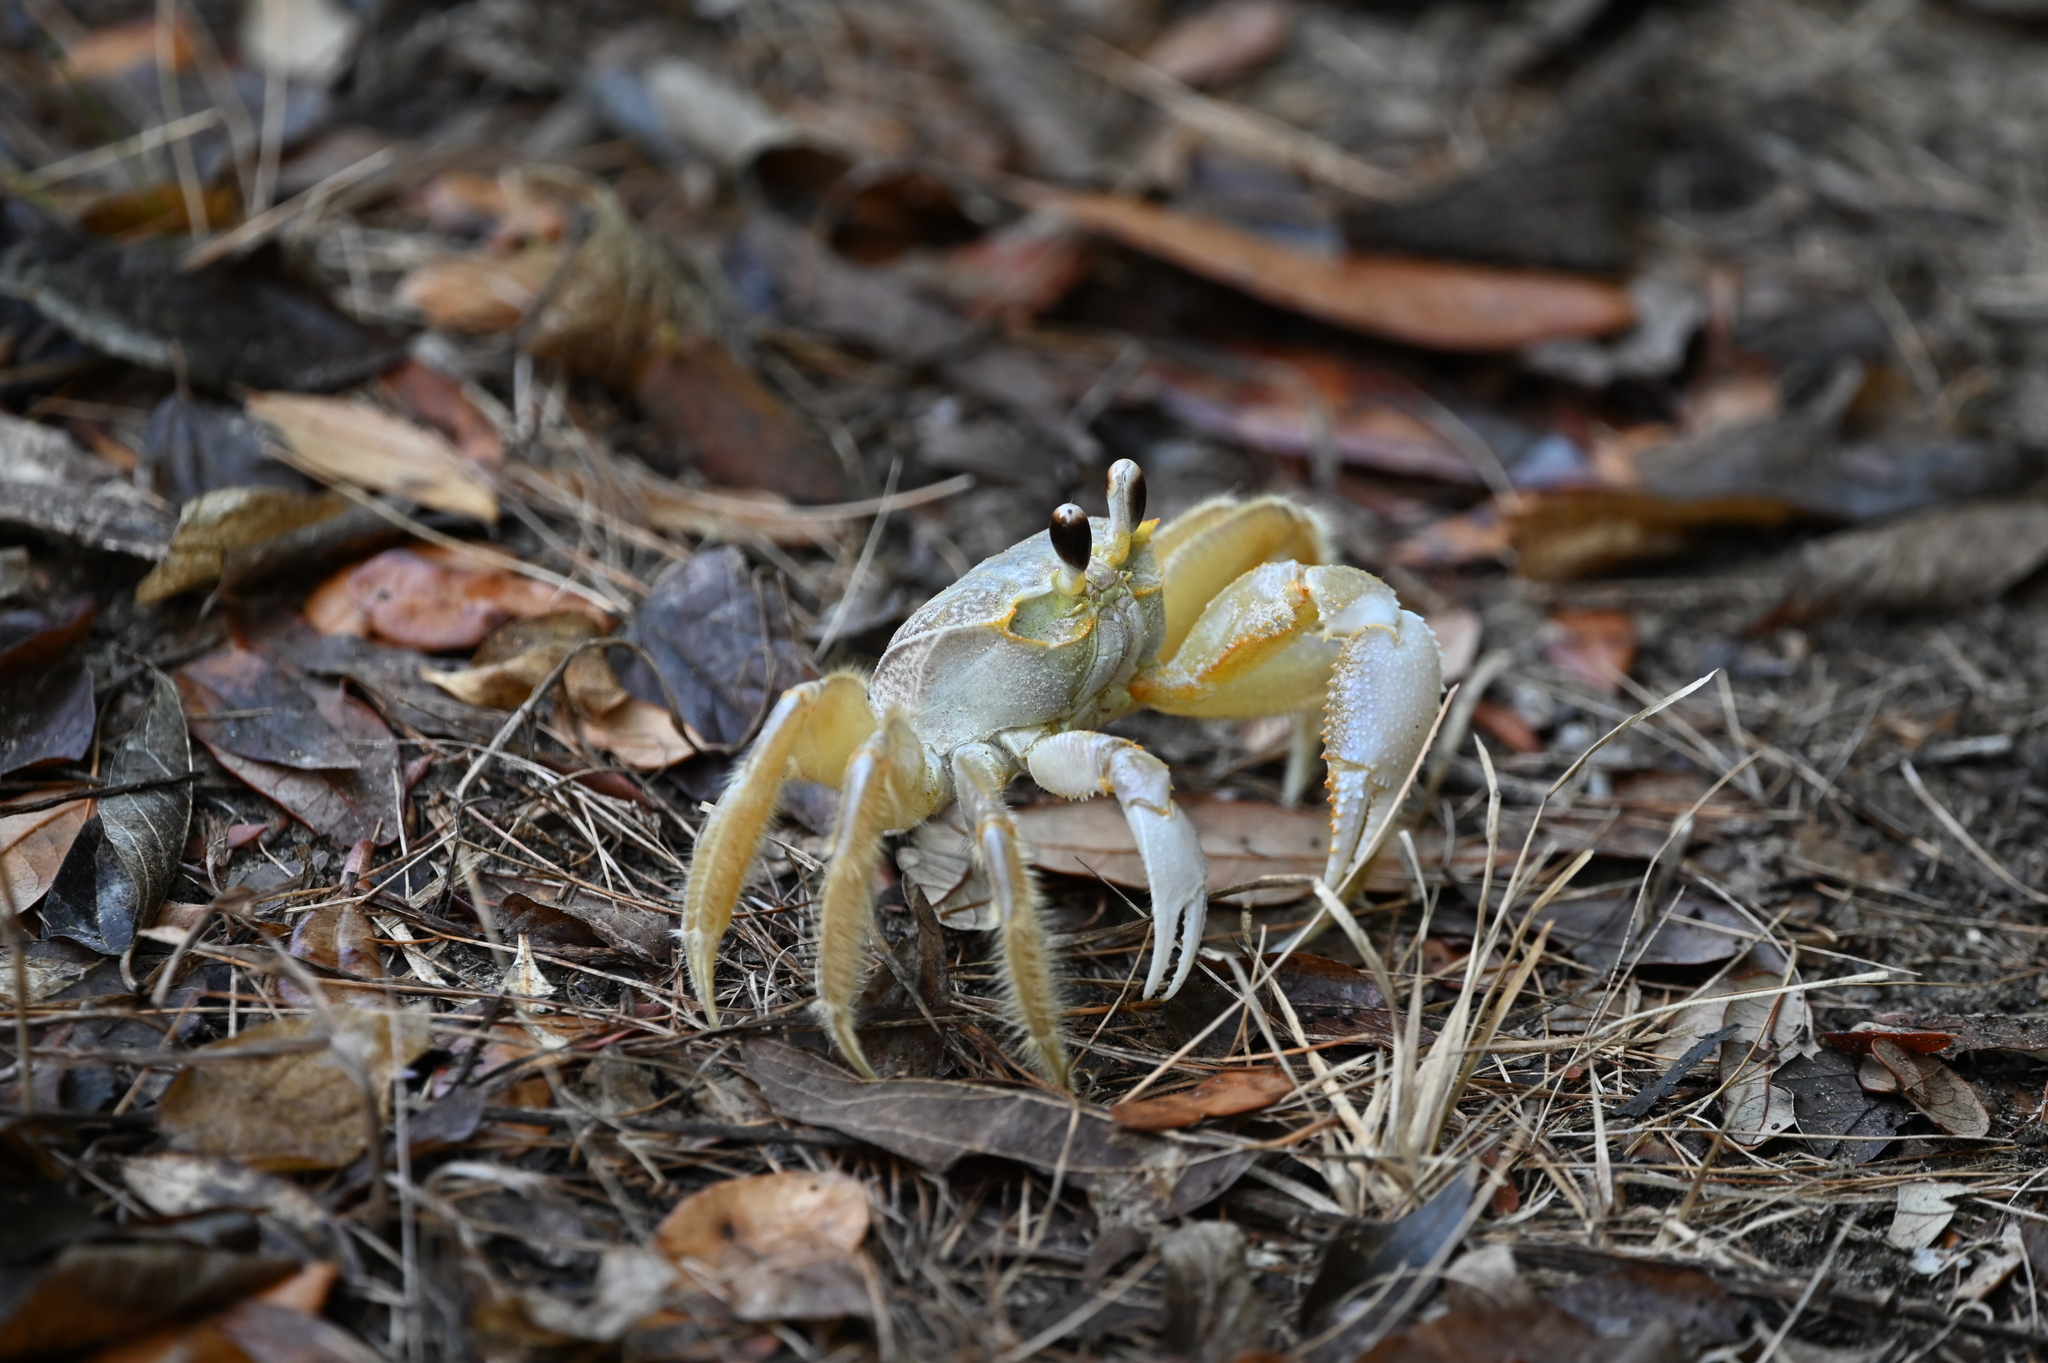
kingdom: Animalia
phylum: Arthropoda
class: Malacostraca
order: Decapoda
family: Ocypodidae
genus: Ocypode
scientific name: Ocypode quadrata
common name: Ghost crab
